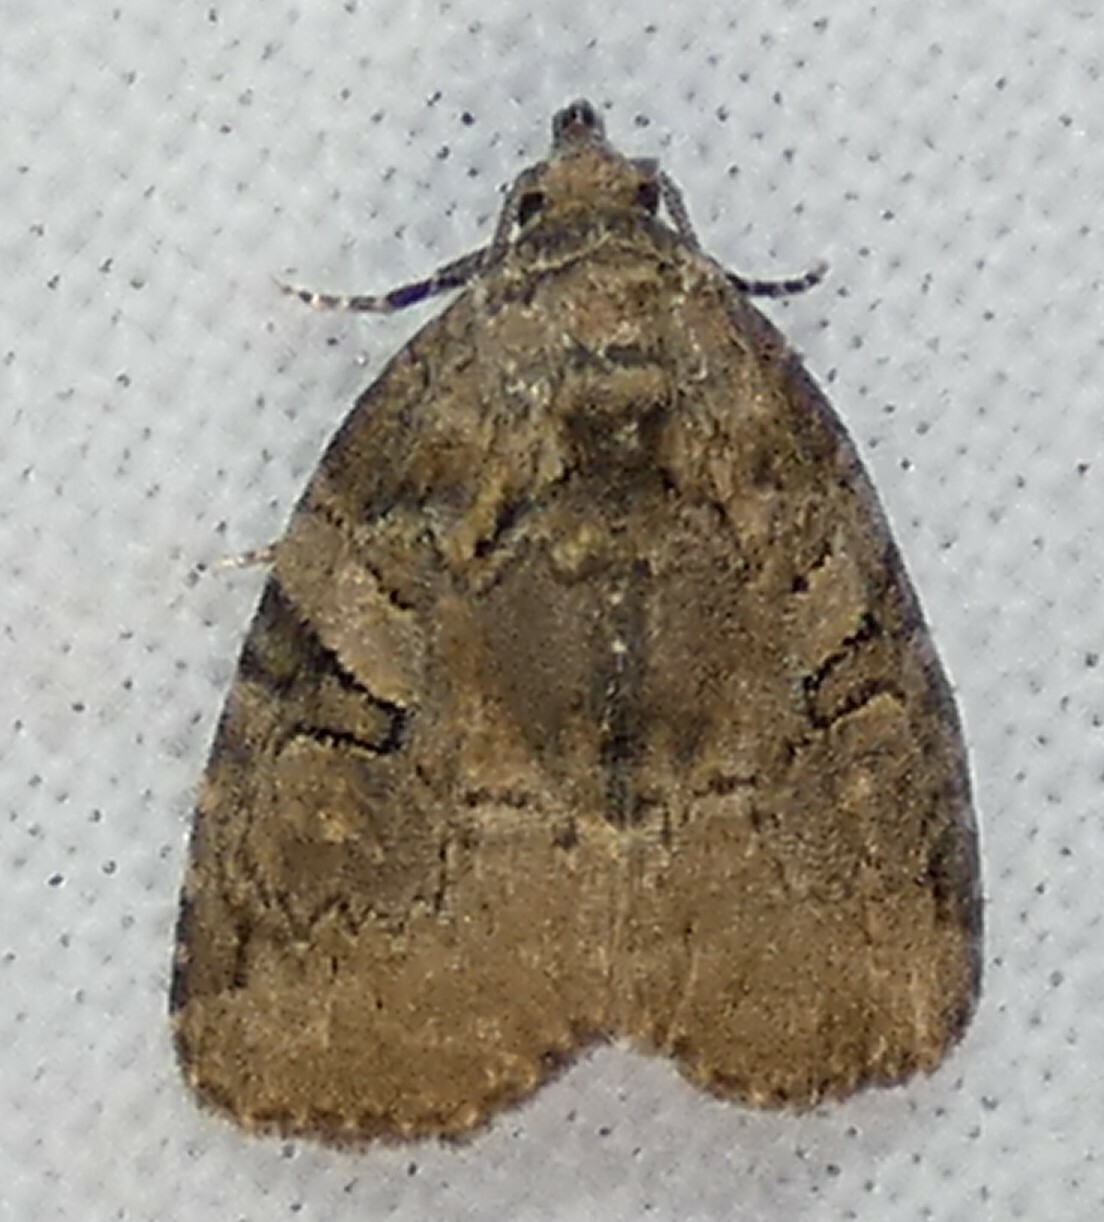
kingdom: Animalia
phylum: Arthropoda
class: Insecta
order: Lepidoptera
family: Noctuidae
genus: Pseudeustrotia
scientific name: Pseudeustrotia indeterminata
